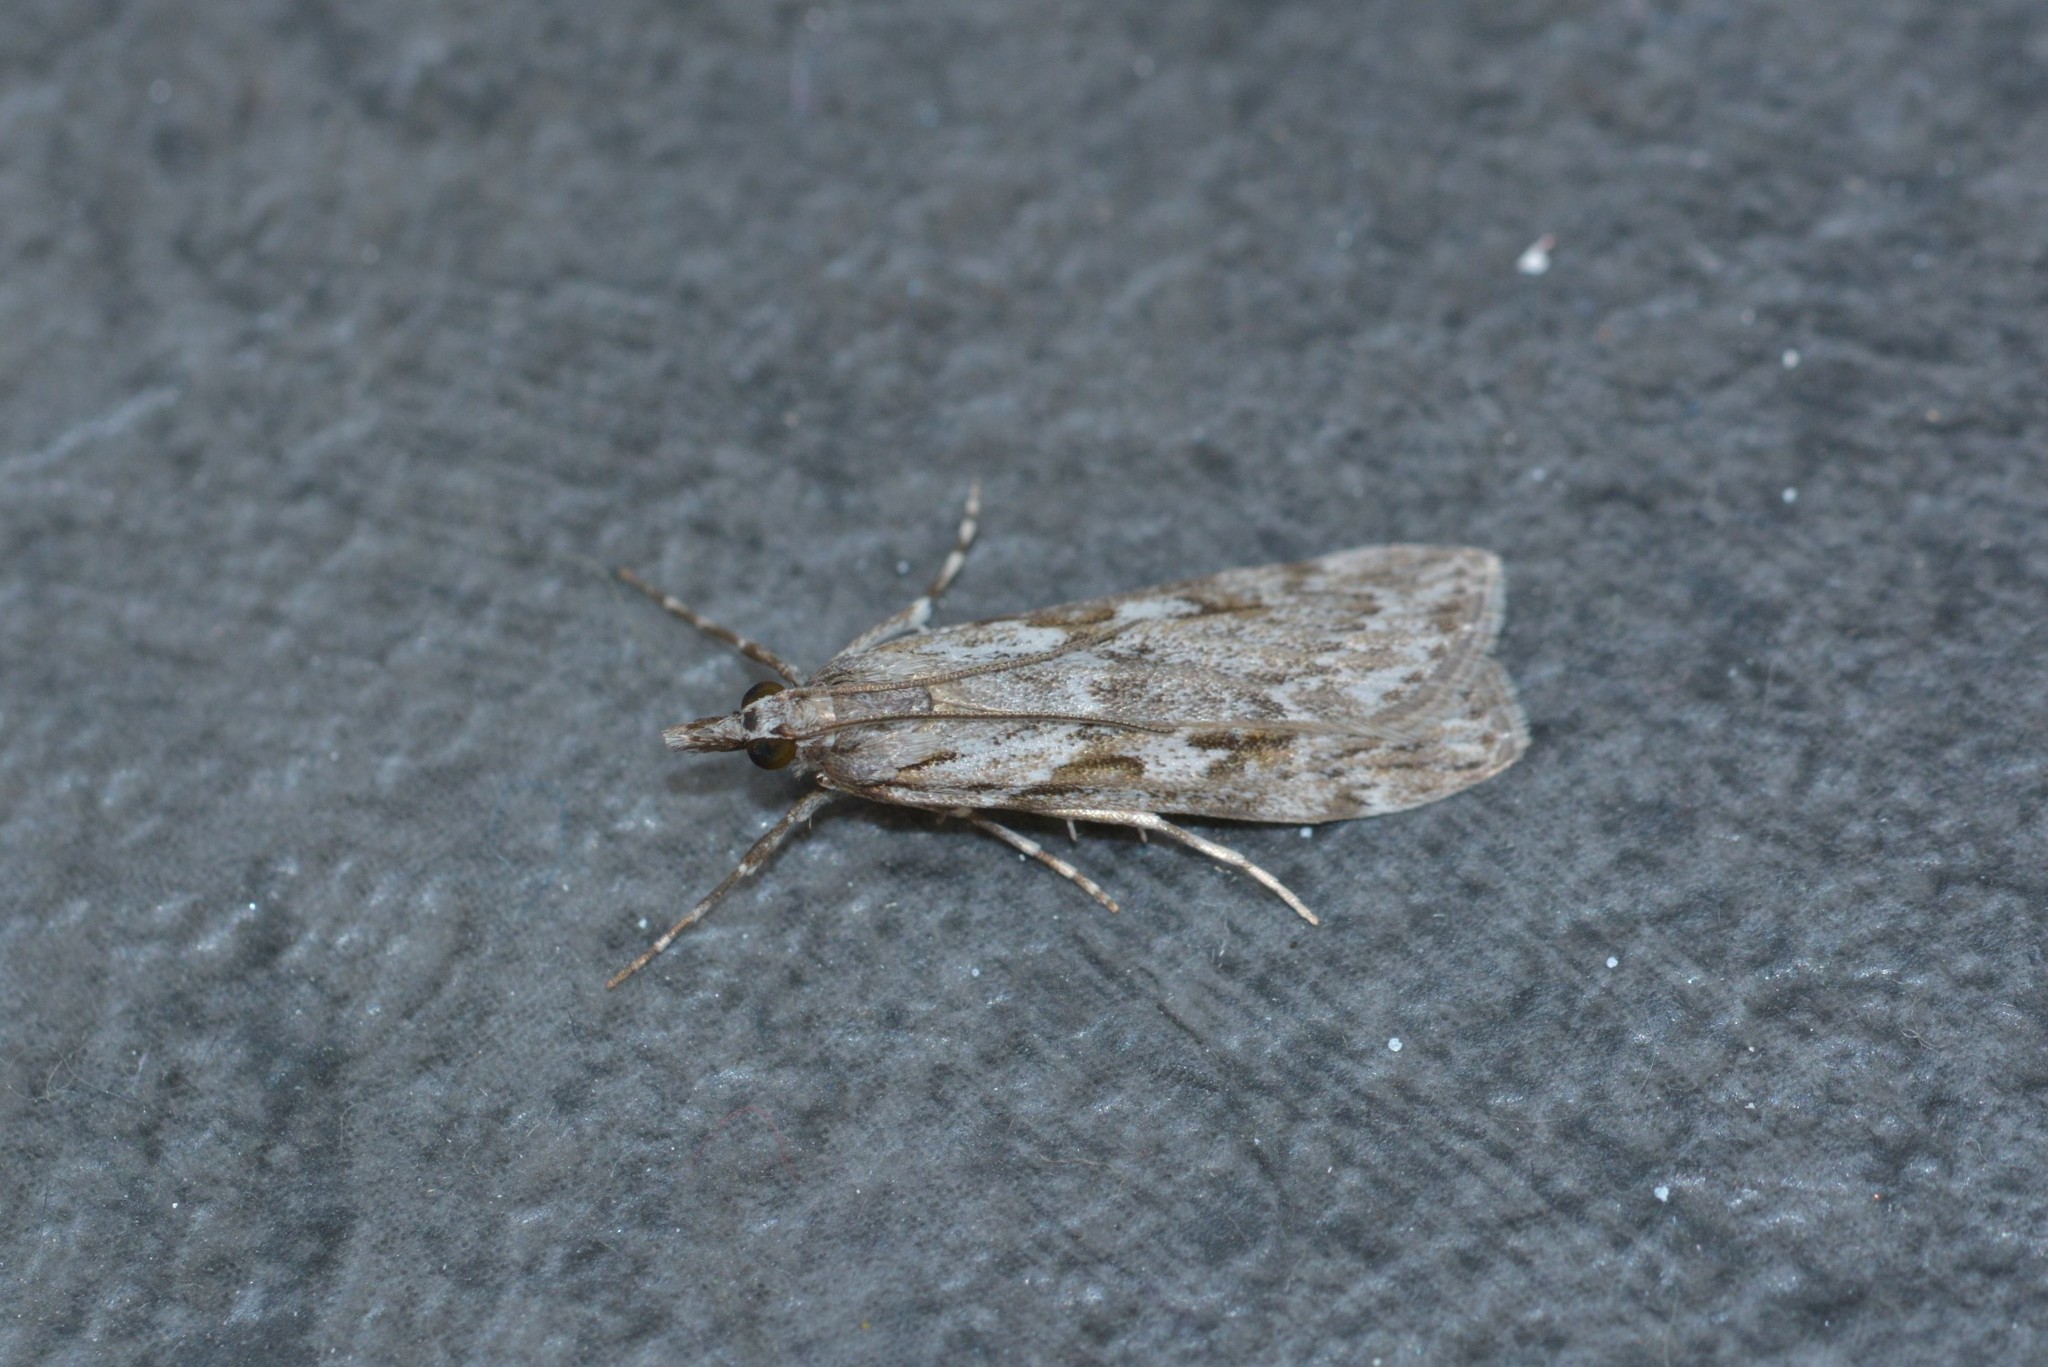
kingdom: Animalia
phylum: Arthropoda
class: Insecta
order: Lepidoptera
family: Crambidae
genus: Scoparia
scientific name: Scoparia halopis
